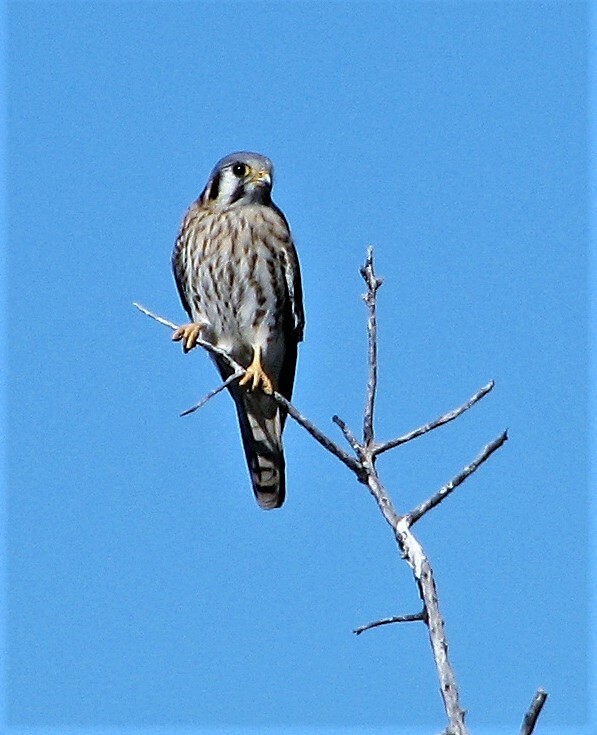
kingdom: Animalia
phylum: Chordata
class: Aves
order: Falconiformes
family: Falconidae
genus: Falco
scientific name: Falco sparverius
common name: American kestrel
